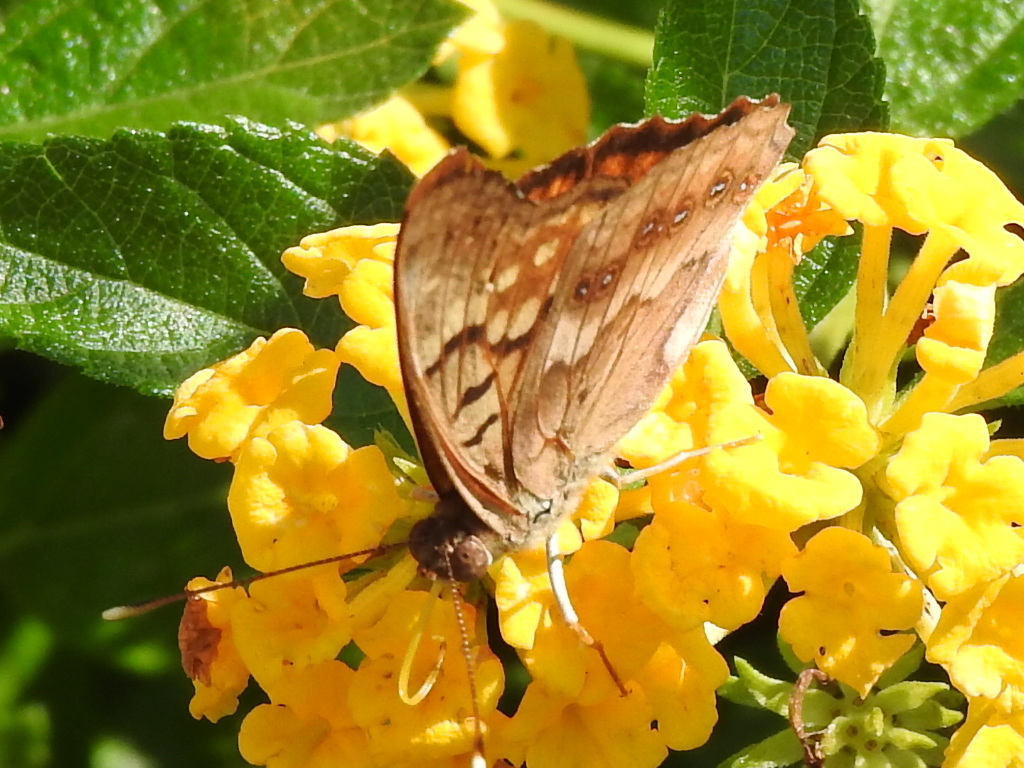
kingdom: Animalia
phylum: Arthropoda
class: Insecta
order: Lepidoptera
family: Nymphalidae
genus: Asterocampa
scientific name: Asterocampa clyton
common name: Tawny emperor
